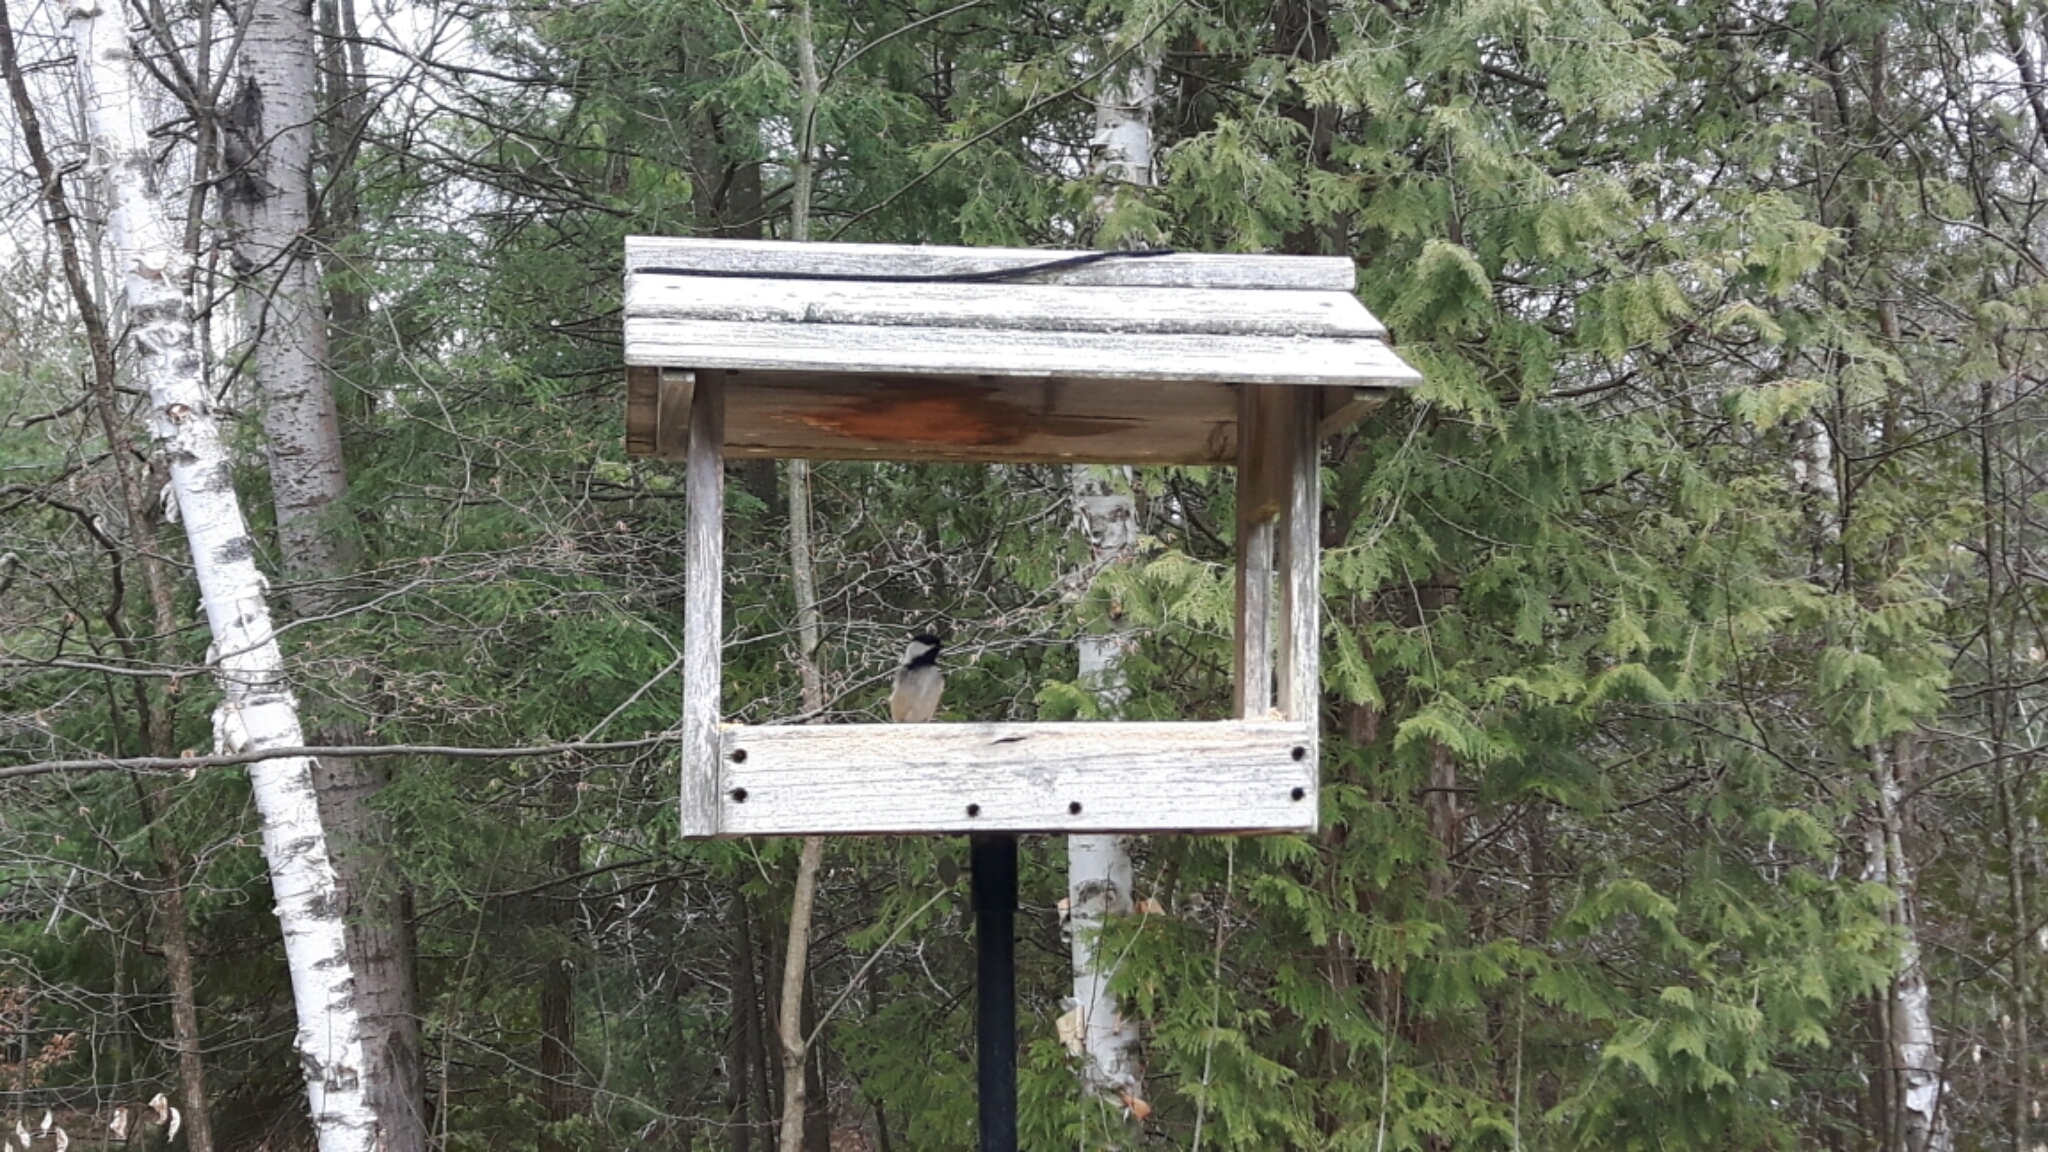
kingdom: Animalia
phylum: Chordata
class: Aves
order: Passeriformes
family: Paridae
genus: Poecile
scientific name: Poecile atricapillus
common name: Black-capped chickadee
